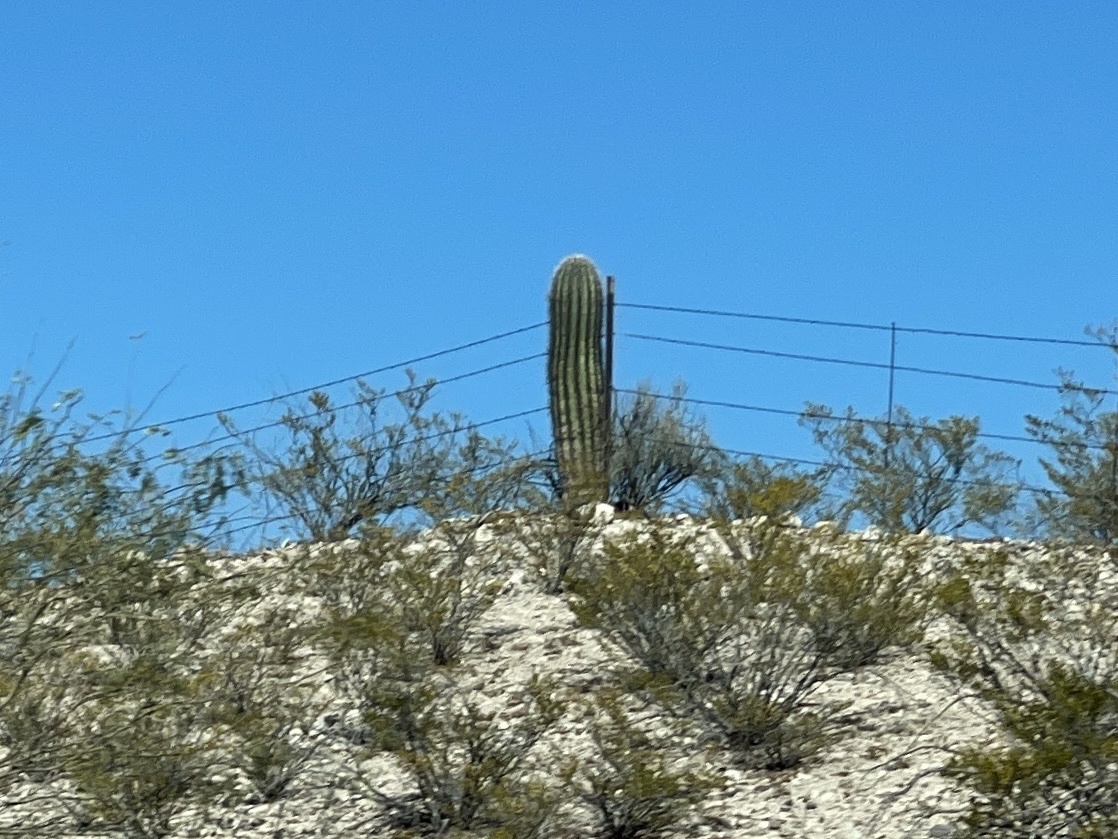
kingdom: Plantae
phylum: Tracheophyta
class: Magnoliopsida
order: Caryophyllales
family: Cactaceae
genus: Carnegiea
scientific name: Carnegiea gigantea
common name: Saguaro
